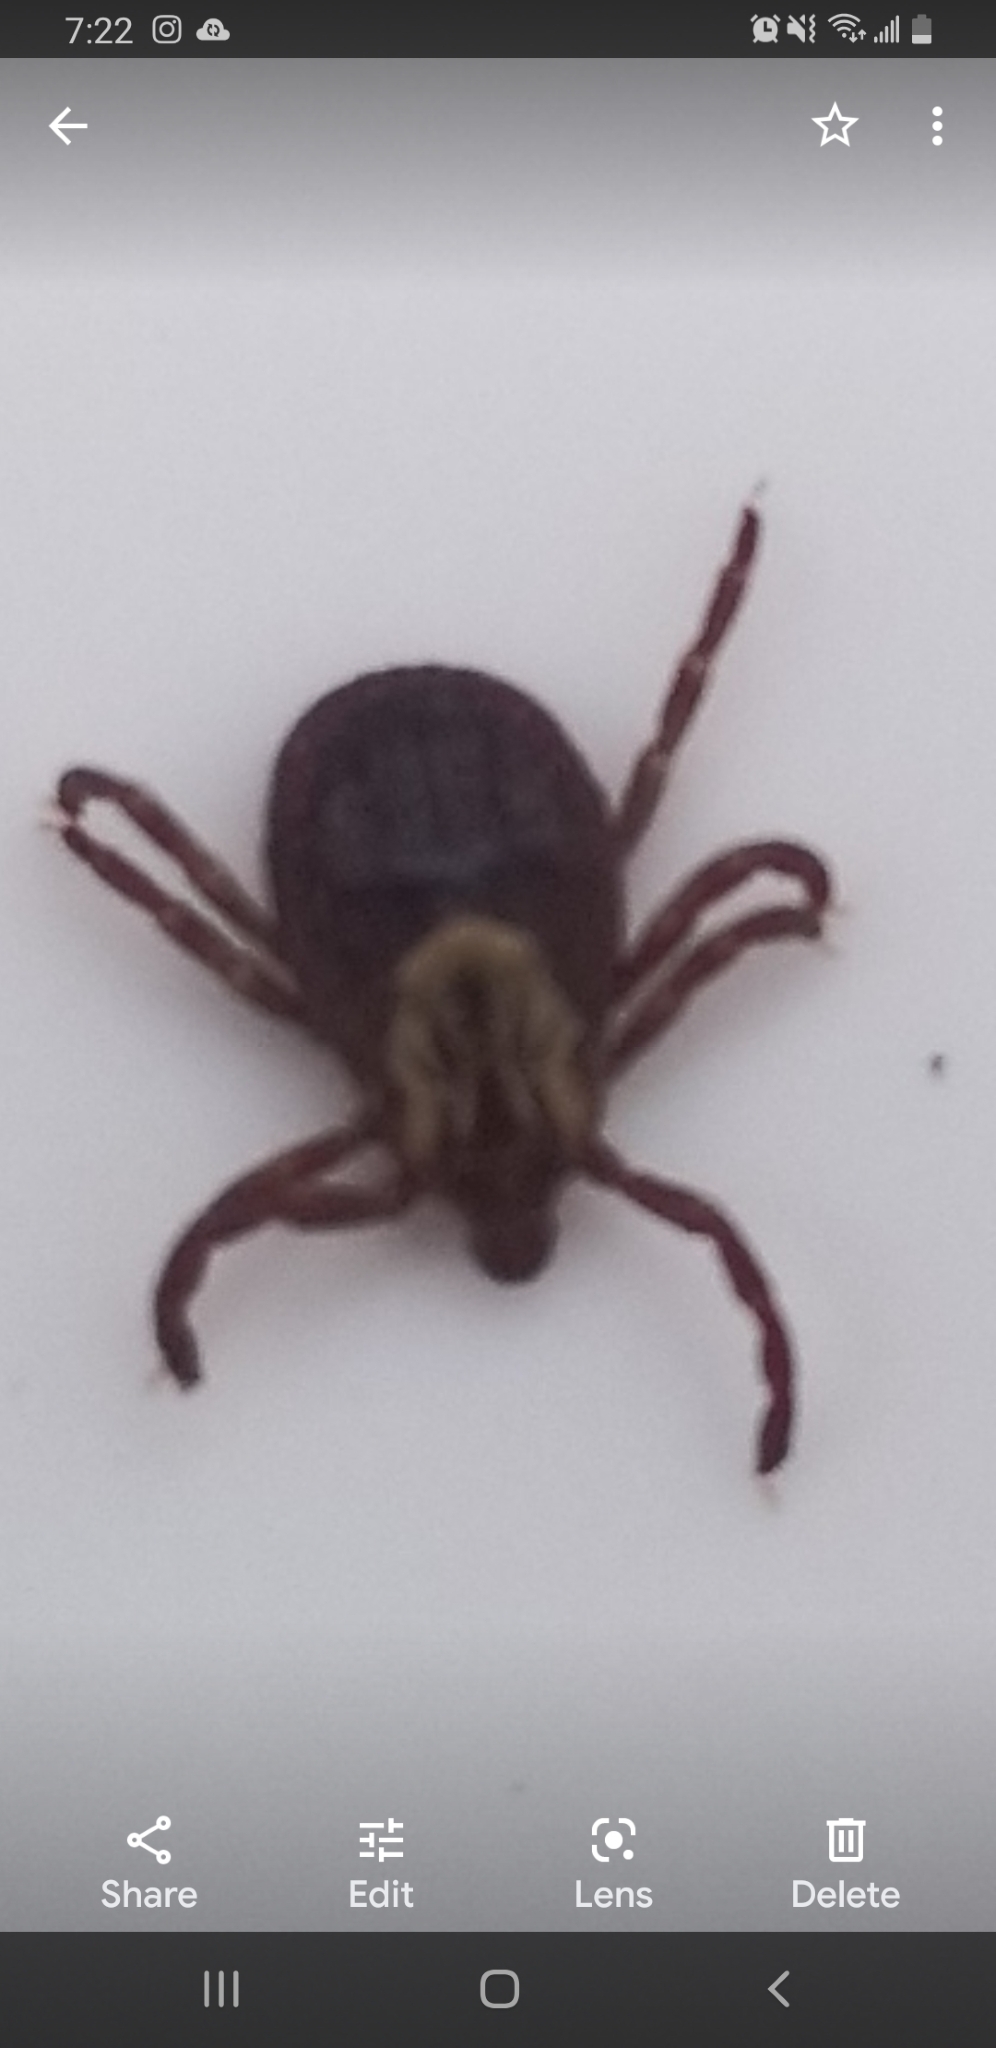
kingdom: Animalia
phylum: Arthropoda
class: Arachnida
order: Ixodida
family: Ixodidae
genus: Dermacentor
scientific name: Dermacentor variabilis
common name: American dog tick
